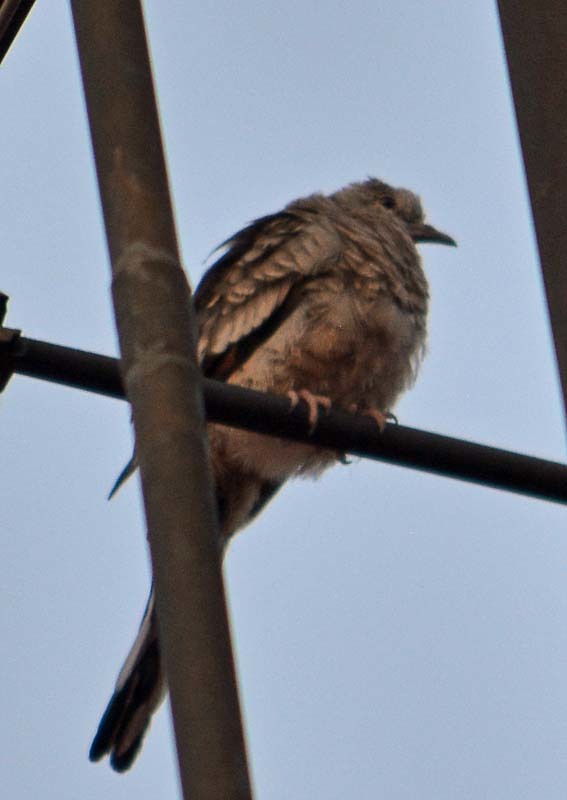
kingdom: Animalia
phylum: Chordata
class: Aves
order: Columbiformes
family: Columbidae
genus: Columbina
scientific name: Columbina inca
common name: Inca dove
